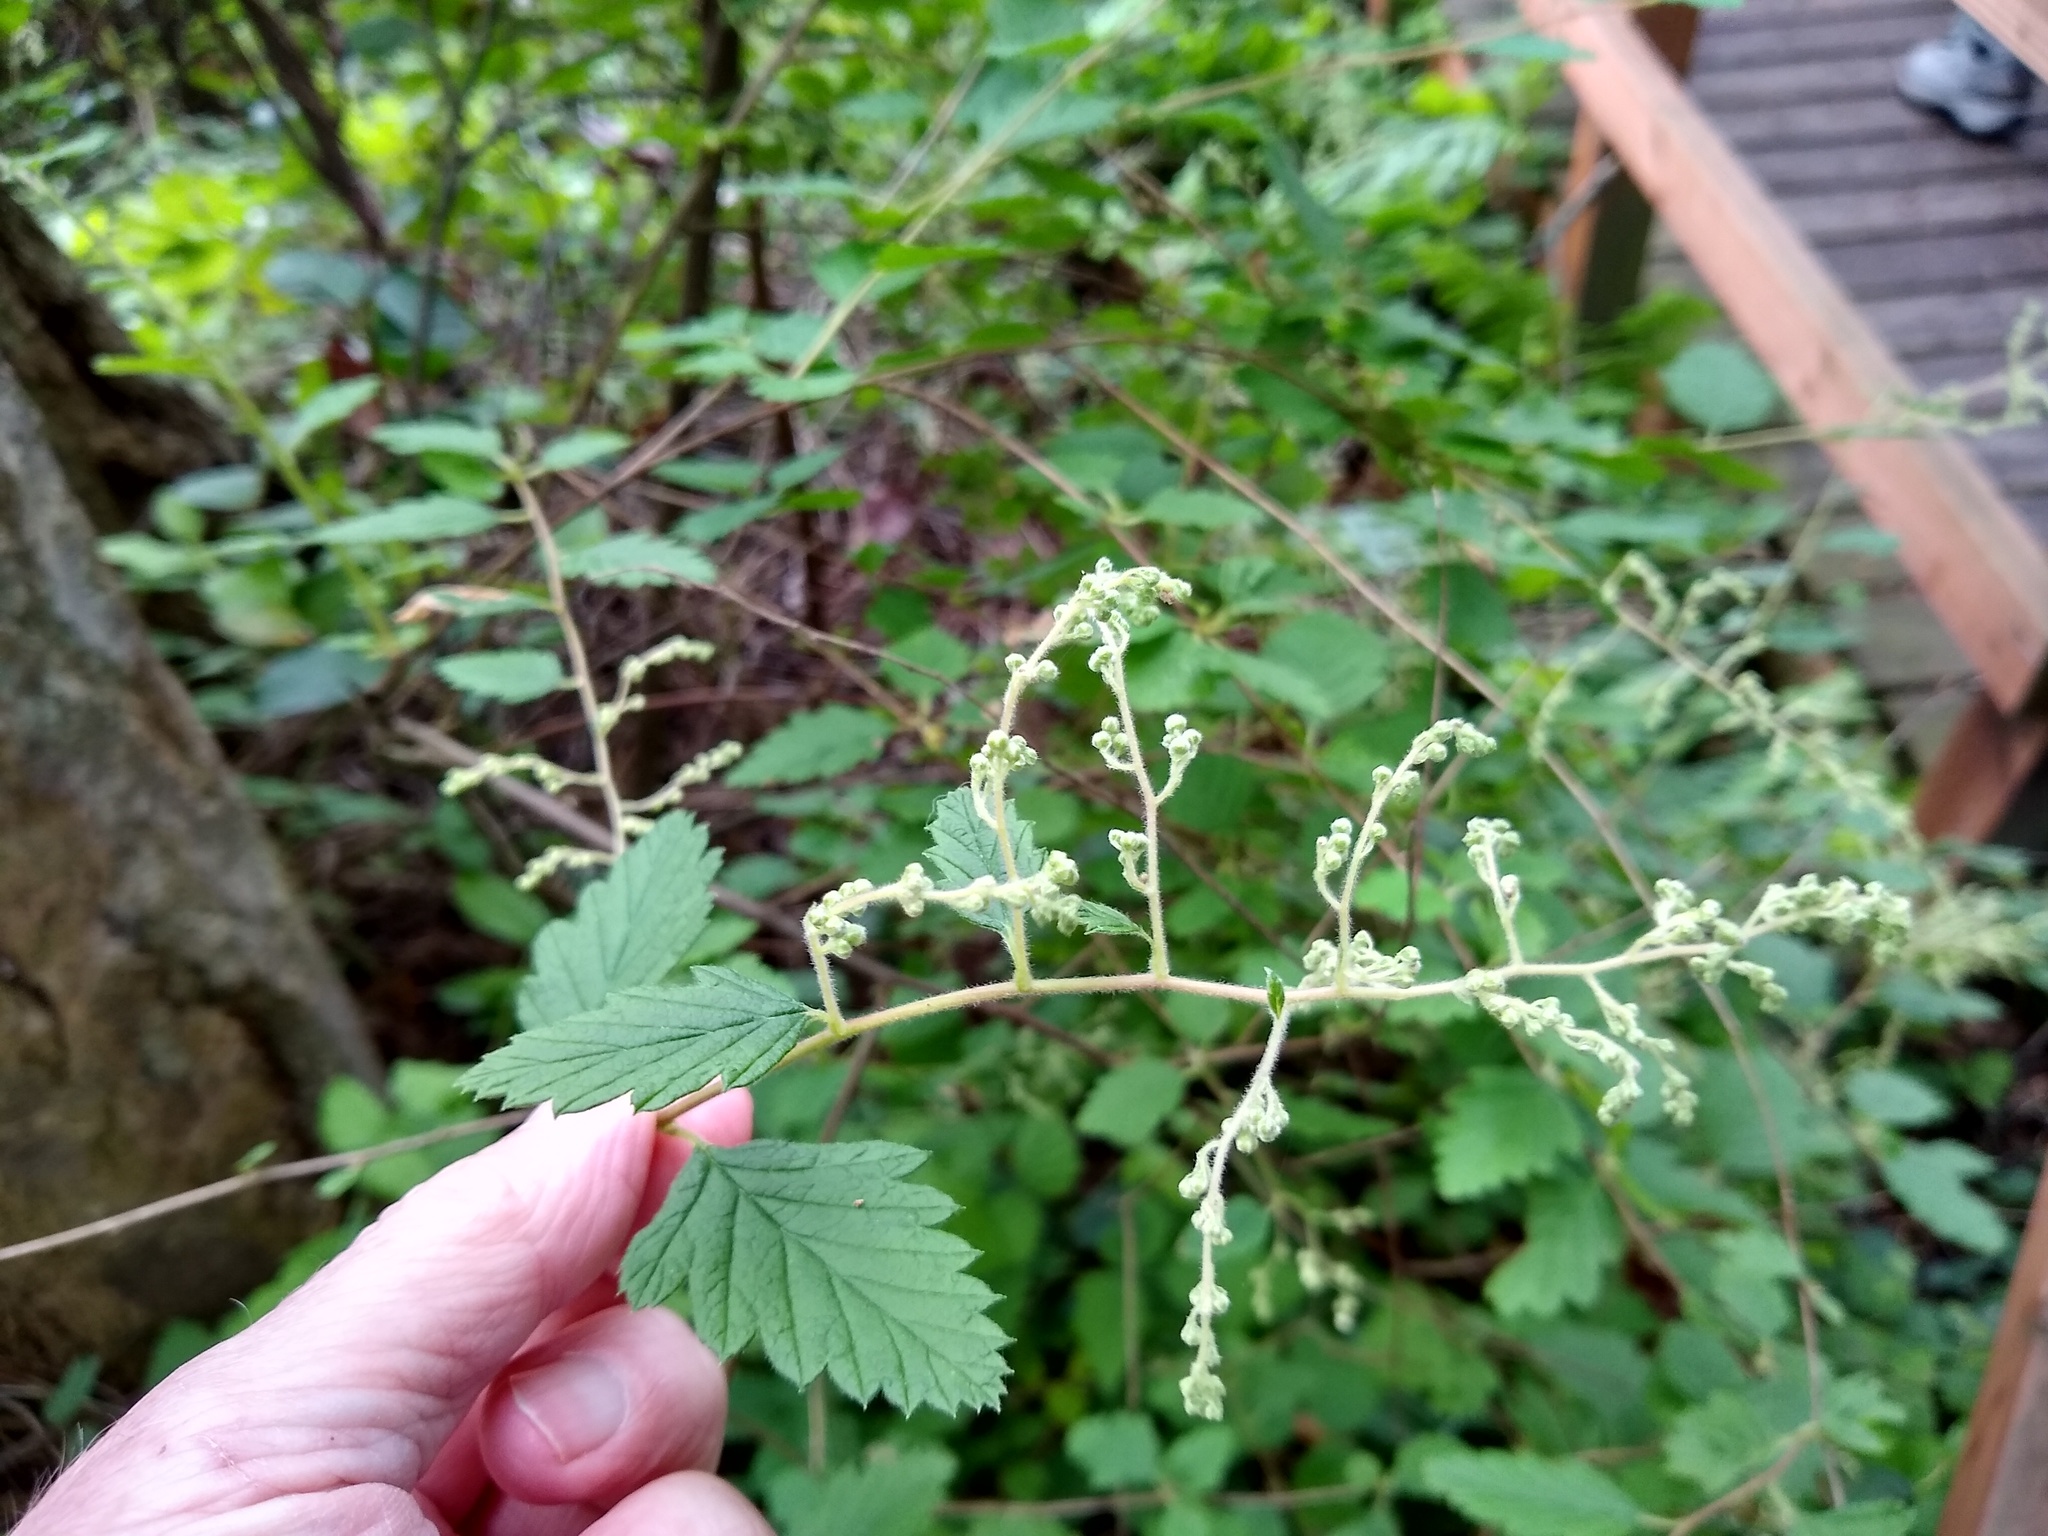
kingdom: Plantae
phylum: Tracheophyta
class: Magnoliopsida
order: Rosales
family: Rosaceae
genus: Holodiscus
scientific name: Holodiscus discolor
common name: Oceanspray
